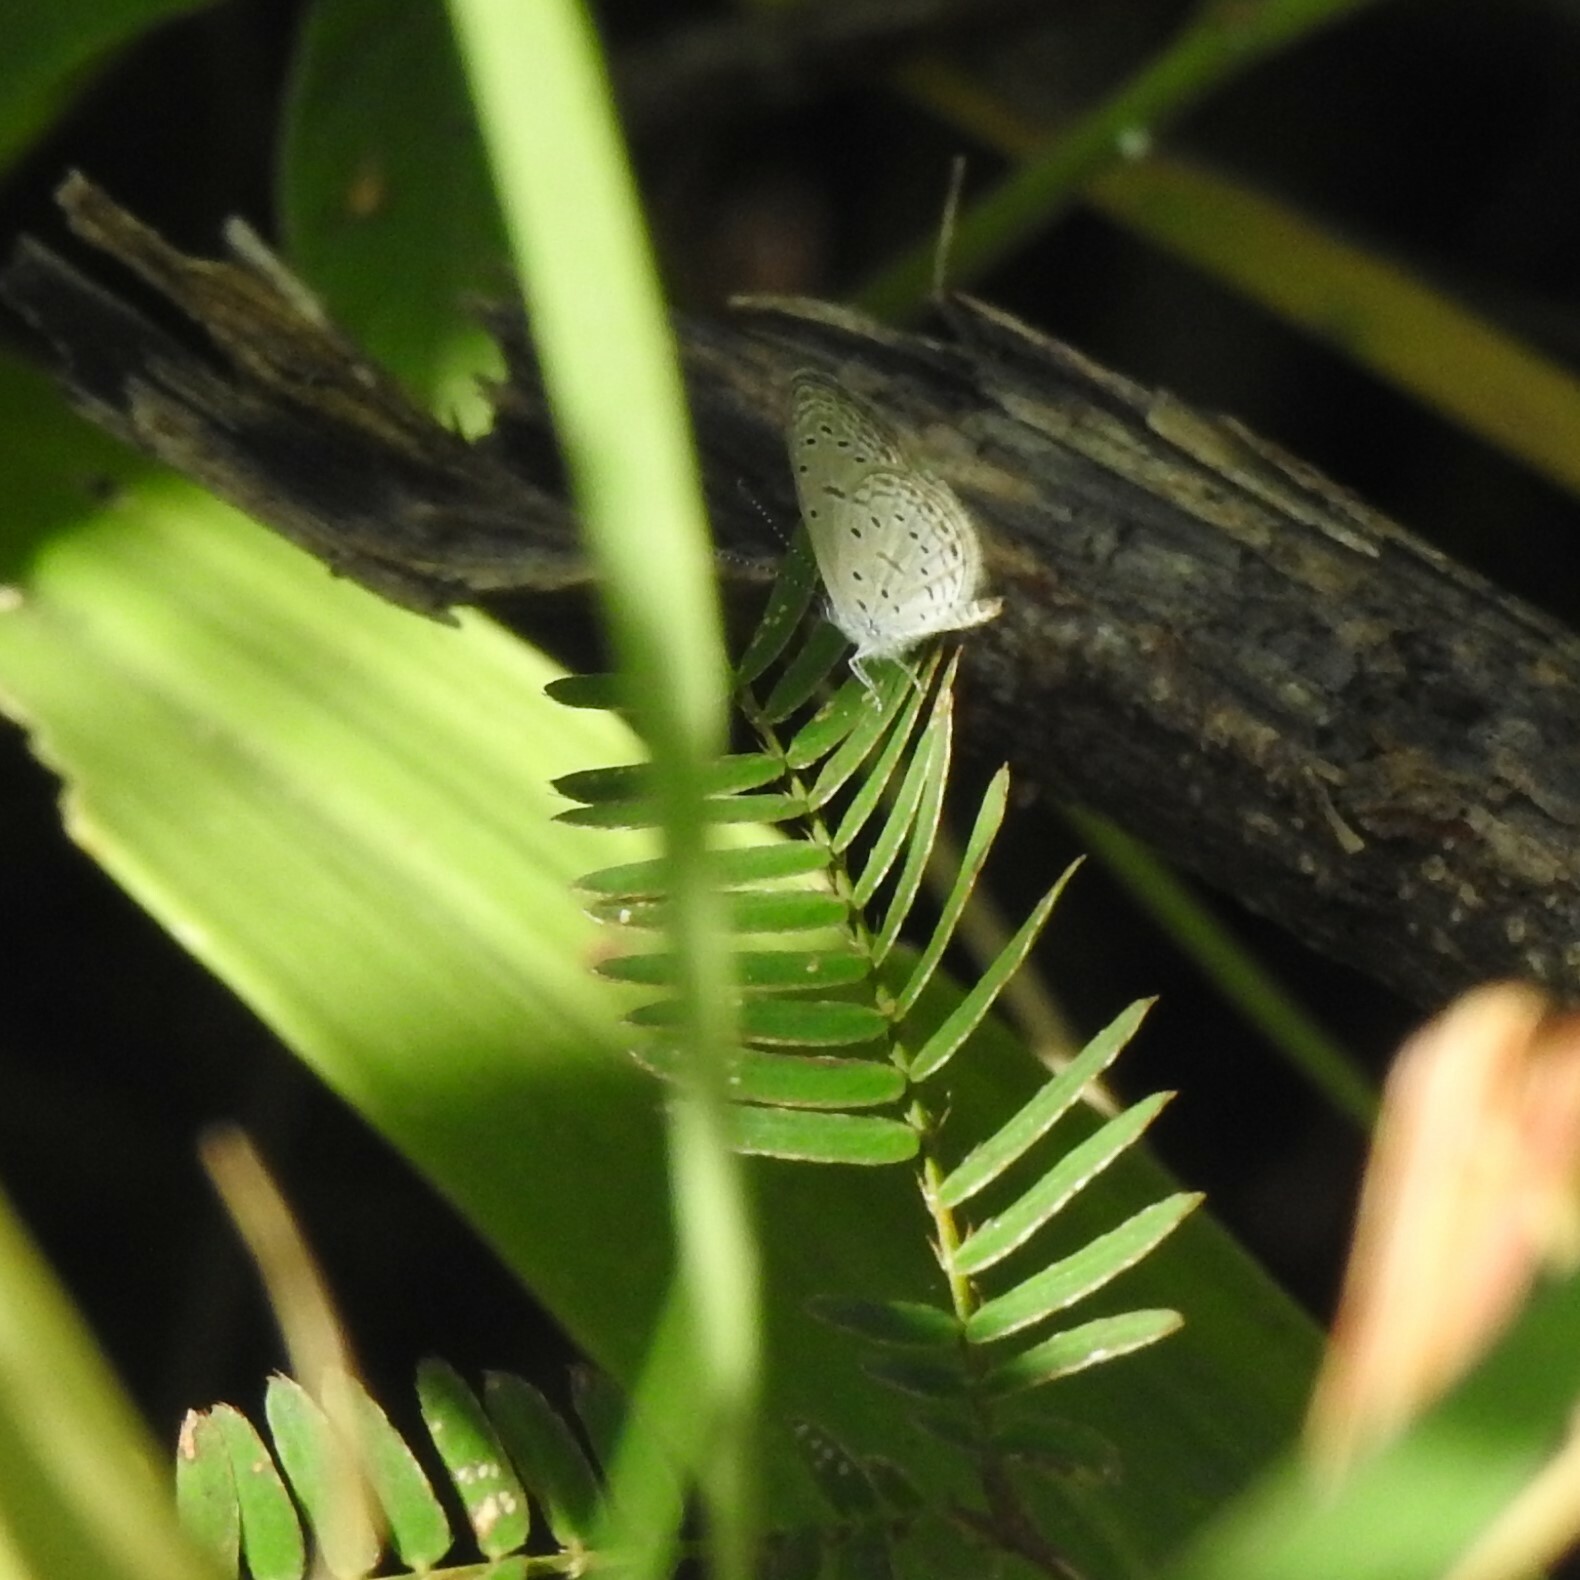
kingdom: Animalia
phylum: Arthropoda
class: Insecta
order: Lepidoptera
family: Lycaenidae
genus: Zizula
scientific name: Zizula hylax
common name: Gaika blue
